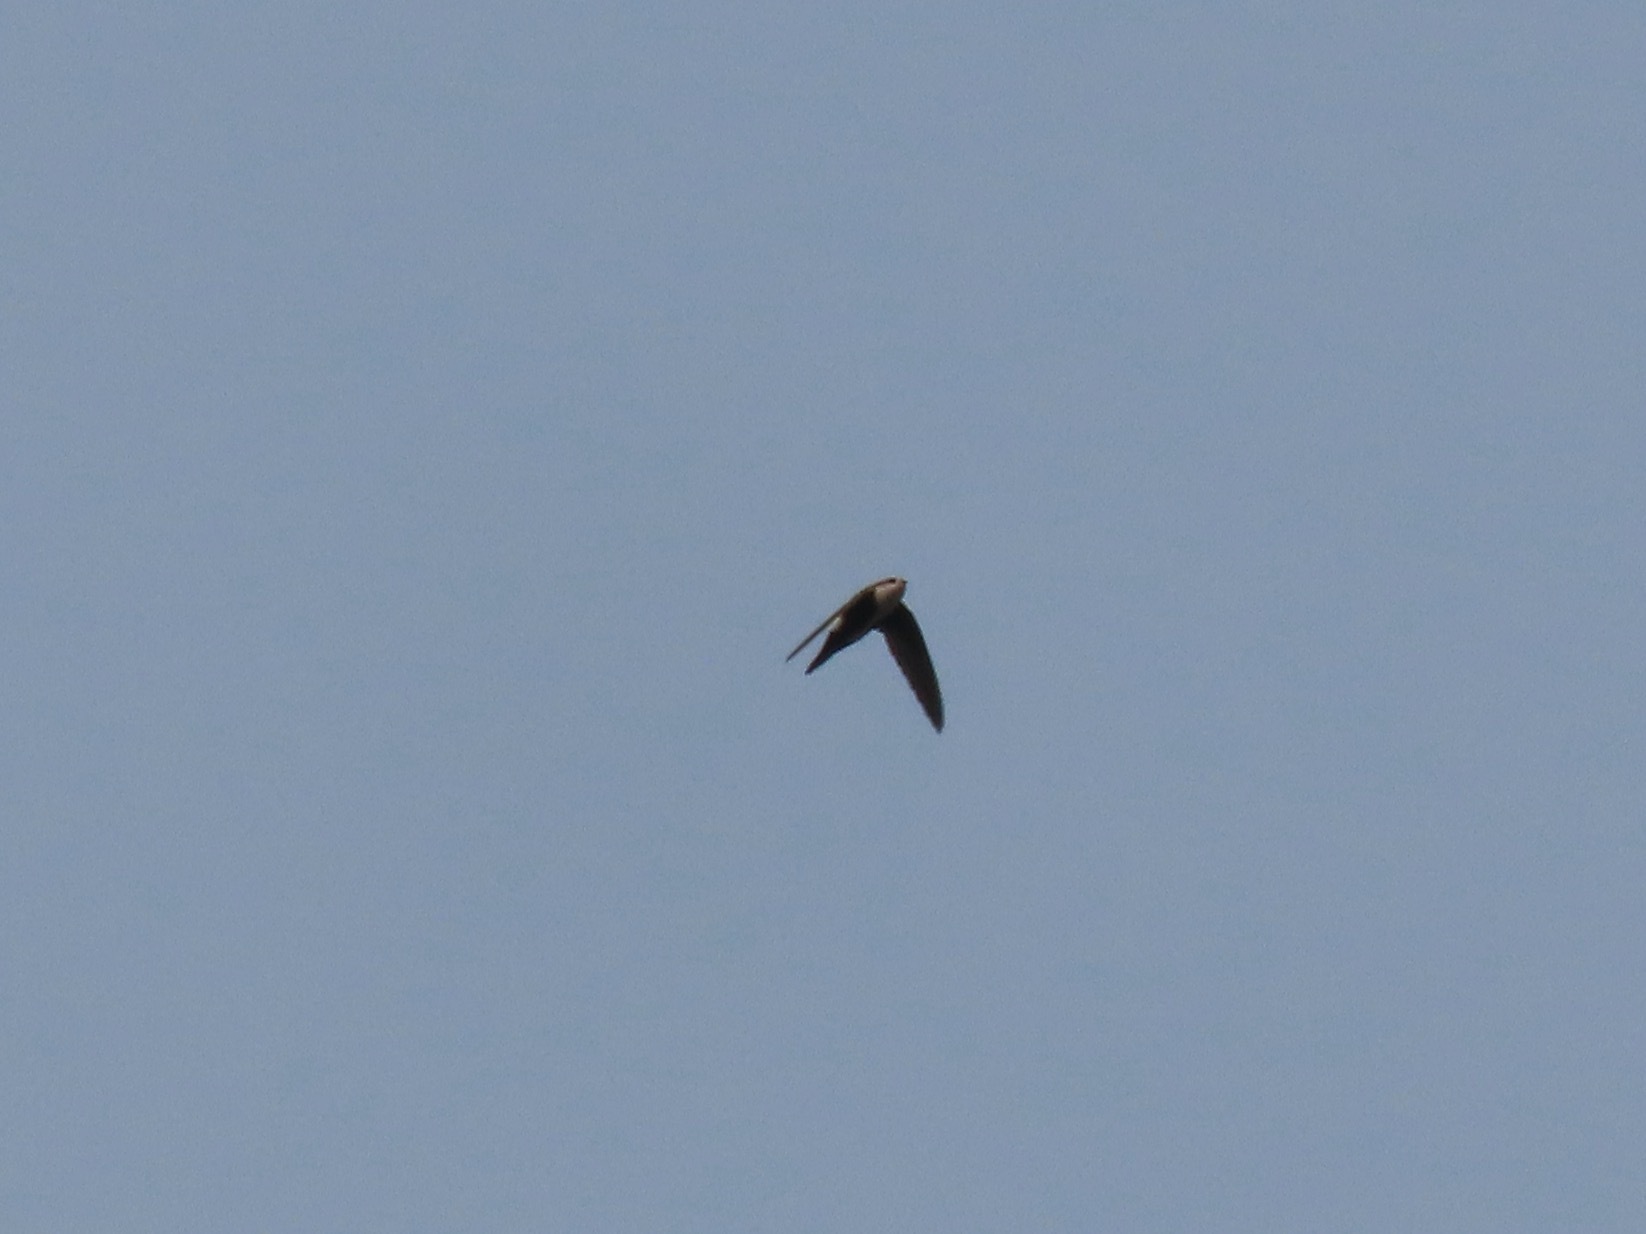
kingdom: Animalia
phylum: Chordata
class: Aves
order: Apodiformes
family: Apodidae
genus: Aeronautes
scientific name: Aeronautes saxatalis
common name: White-throated swift
